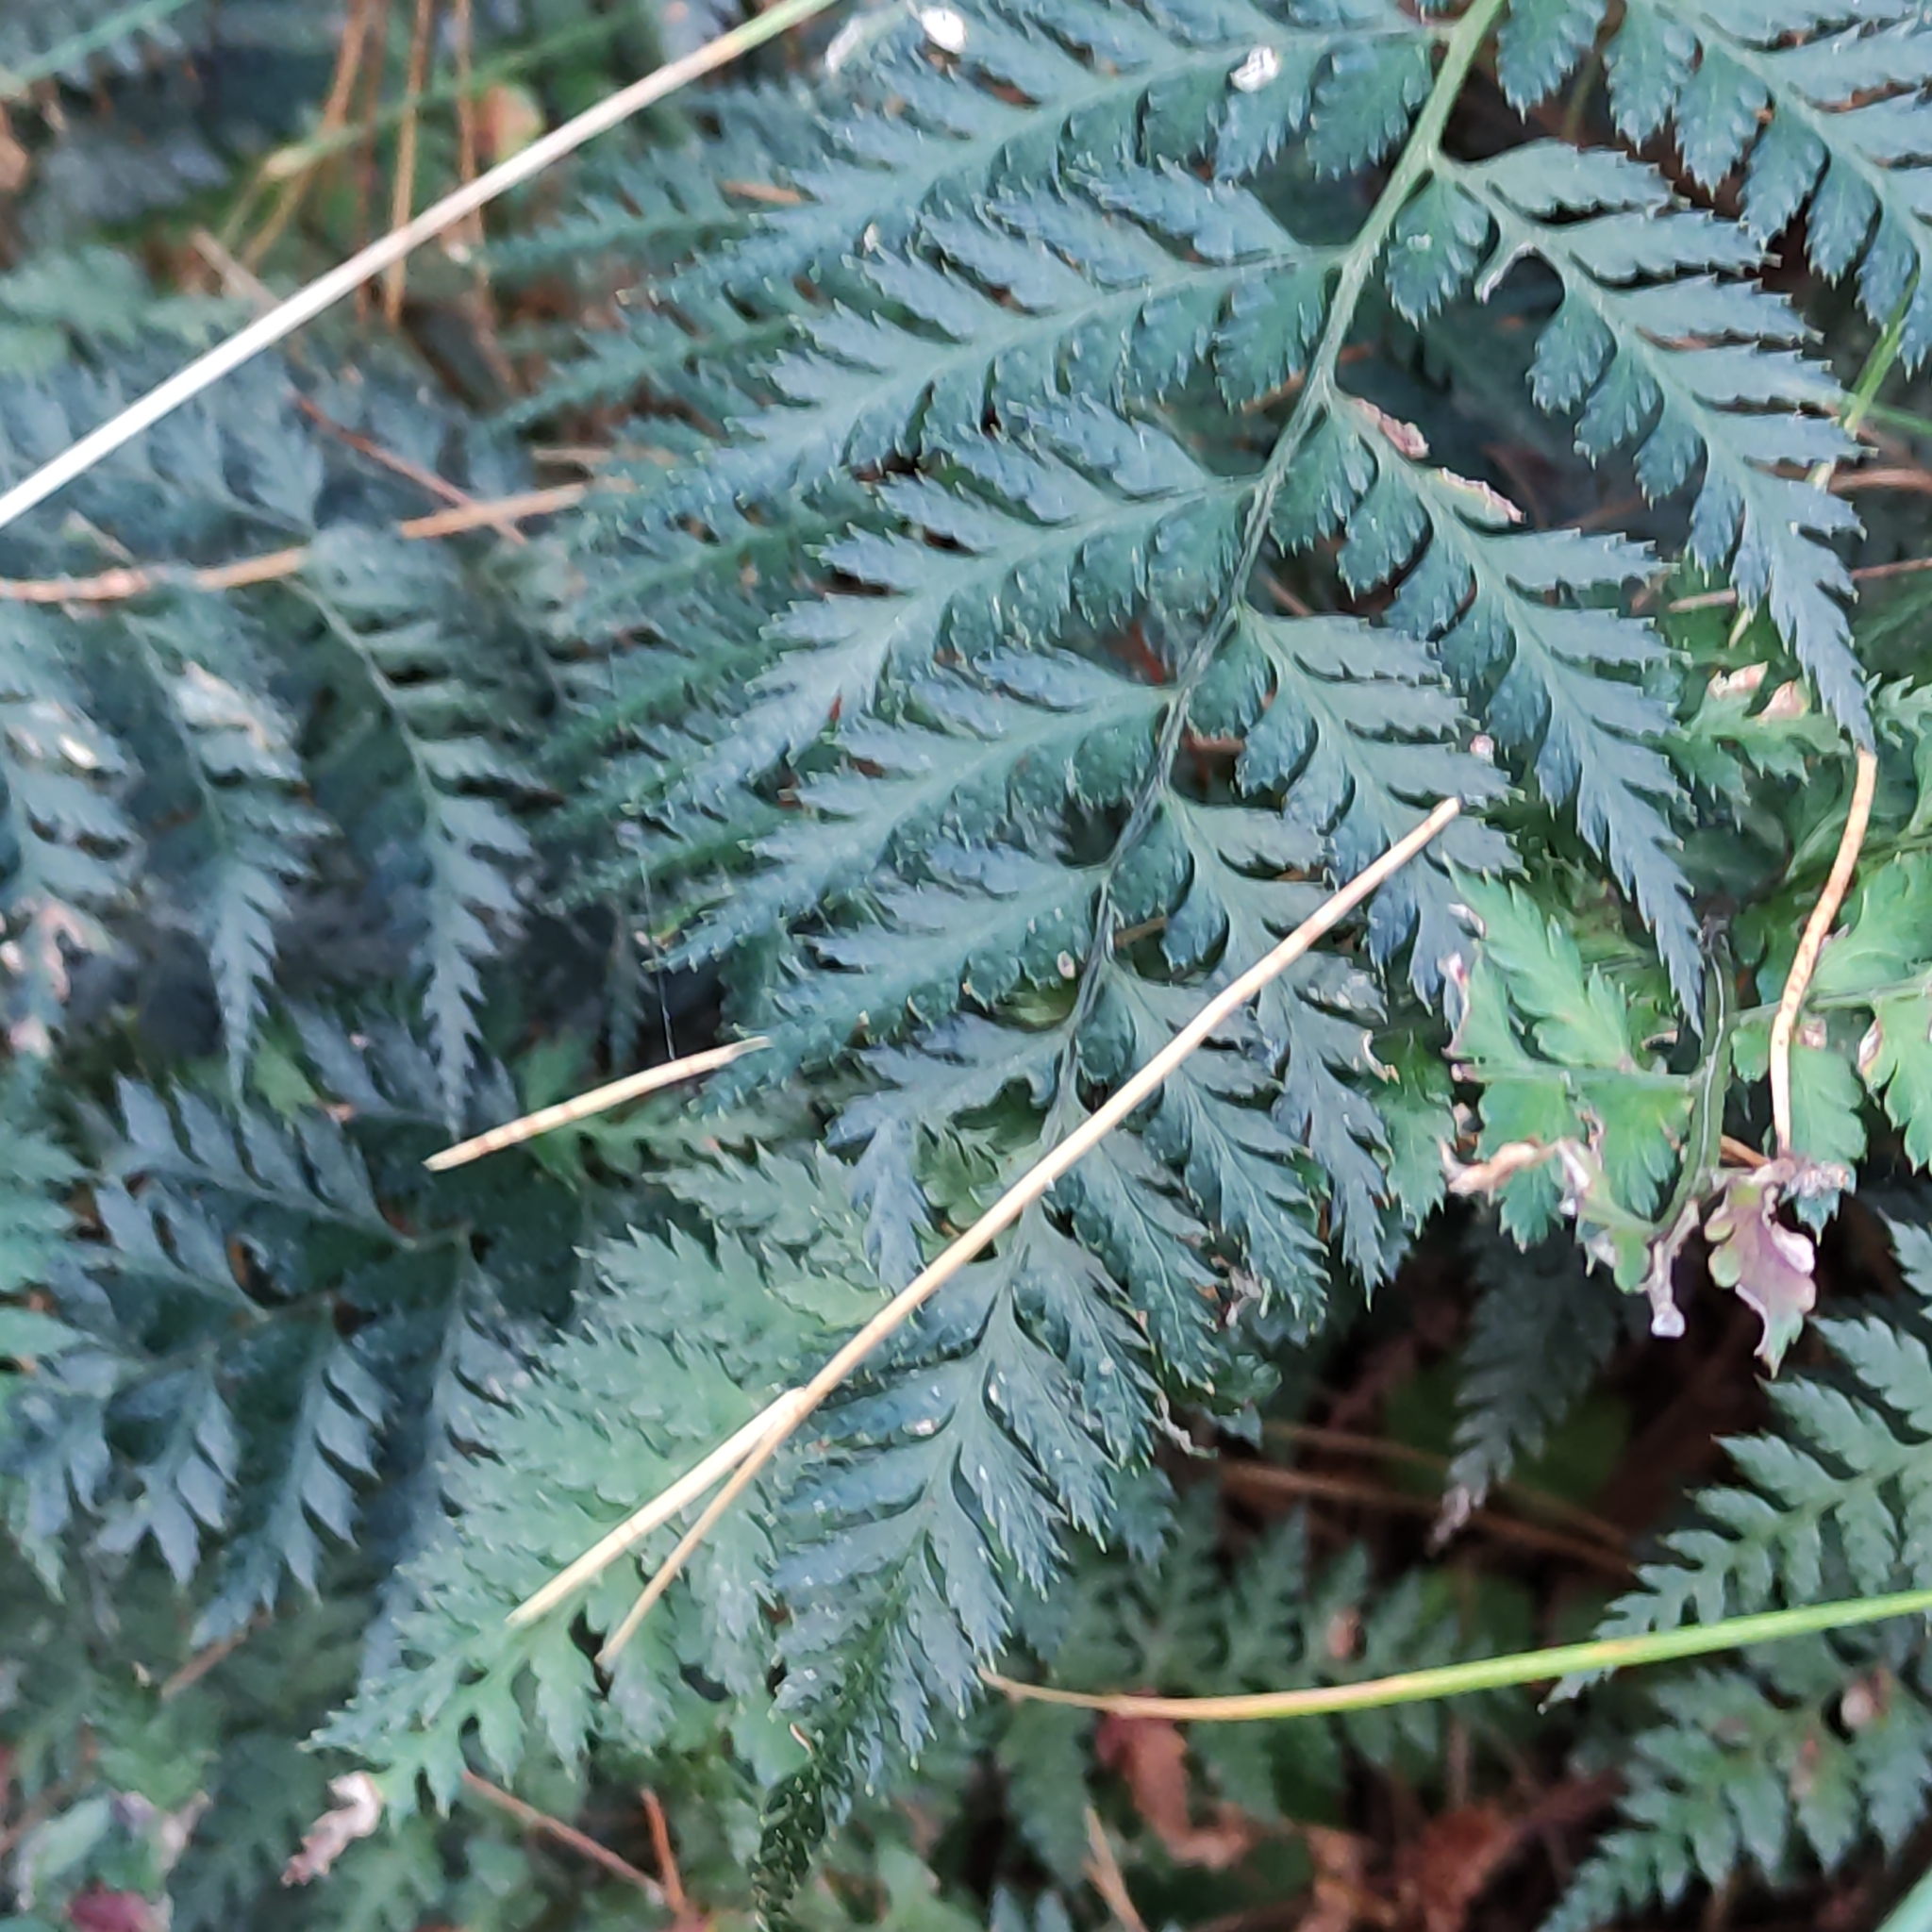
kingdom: Plantae
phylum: Tracheophyta
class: Polypodiopsida
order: Polypodiales
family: Dryopteridaceae
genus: Polystichum
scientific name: Polystichum oculatum
